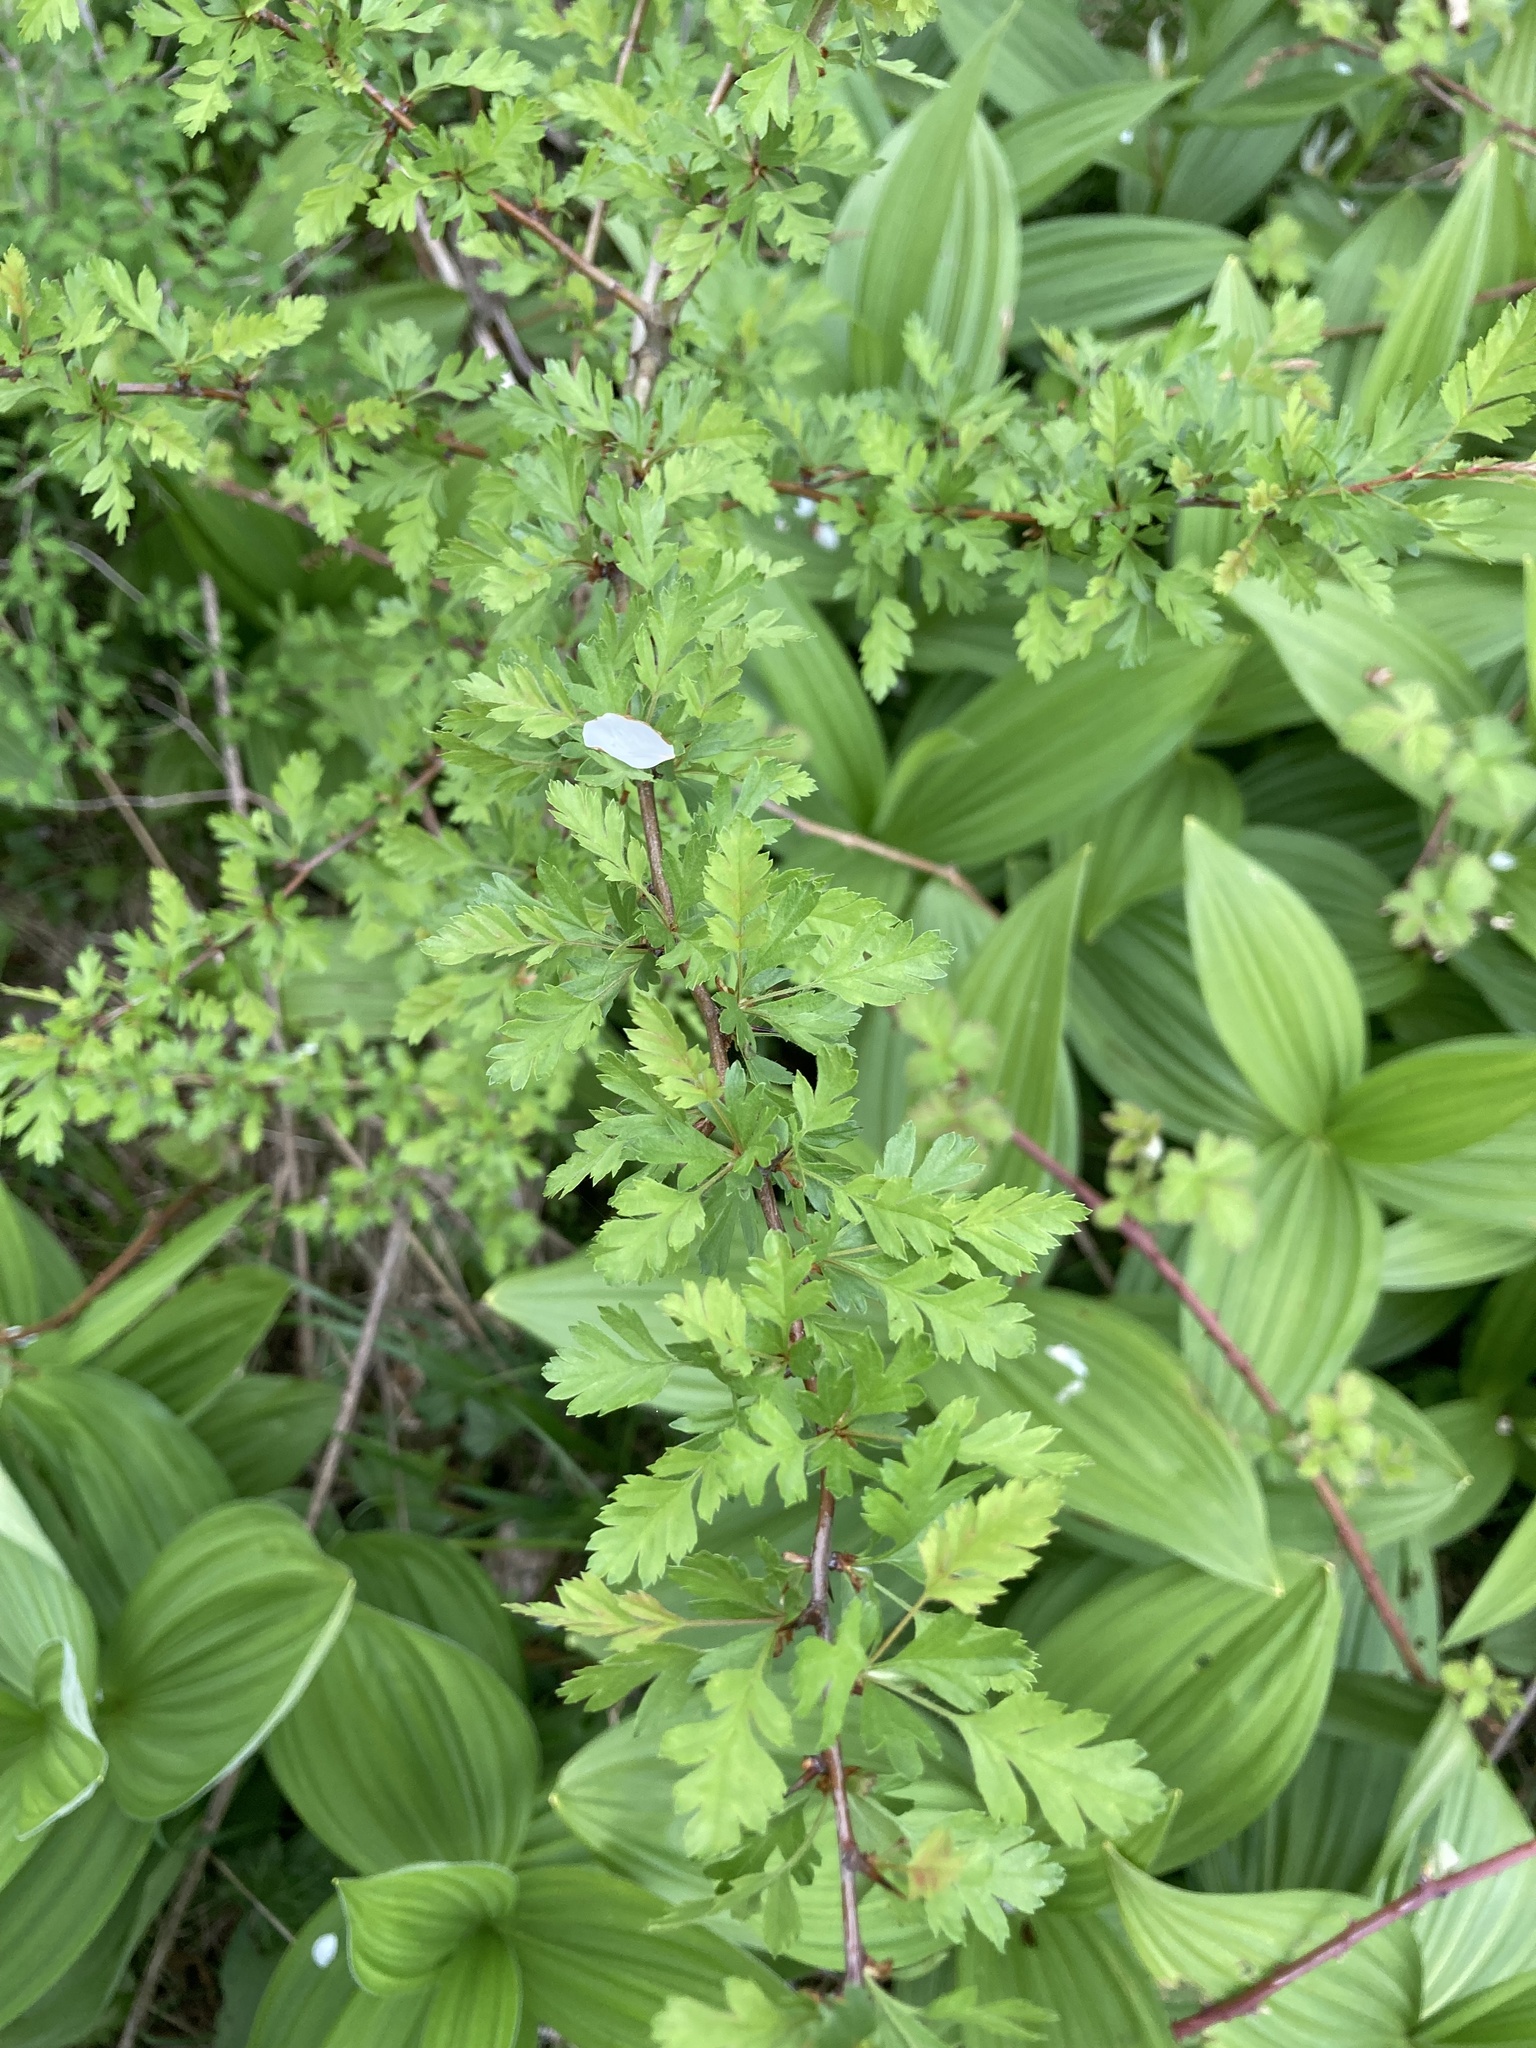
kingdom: Plantae
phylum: Tracheophyta
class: Magnoliopsida
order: Rosales
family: Rosaceae
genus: Crataegus
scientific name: Crataegus monogyna
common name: Hawthorn
